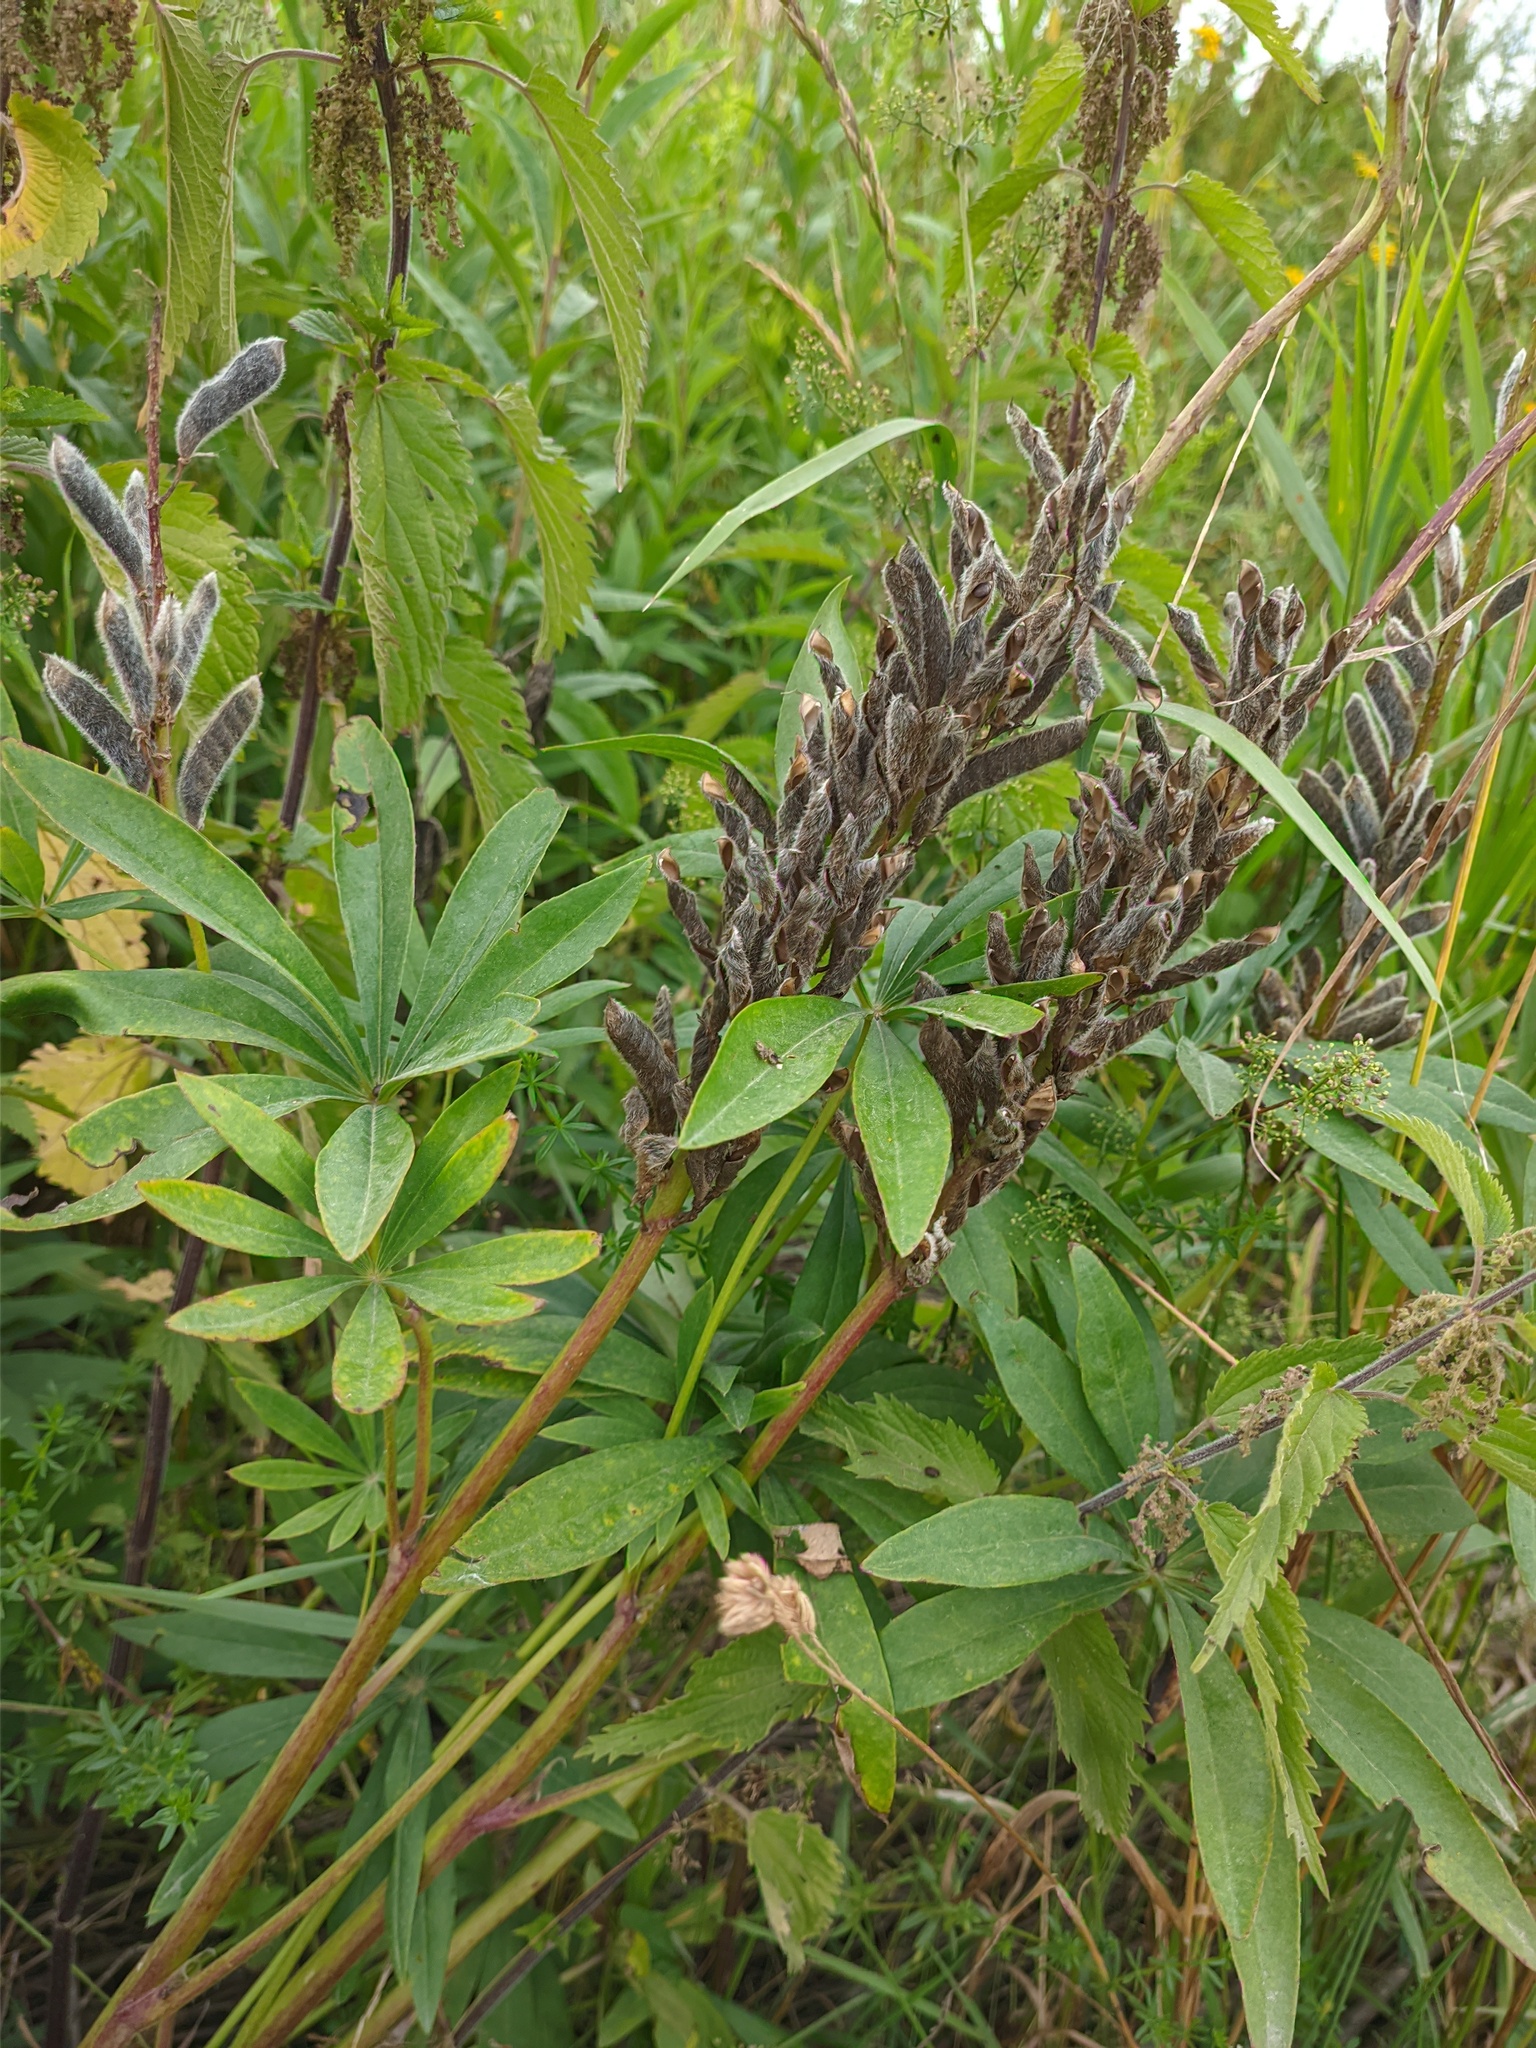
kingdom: Plantae
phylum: Tracheophyta
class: Magnoliopsida
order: Fabales
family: Fabaceae
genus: Lupinus
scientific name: Lupinus polyphyllus
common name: Garden lupin
